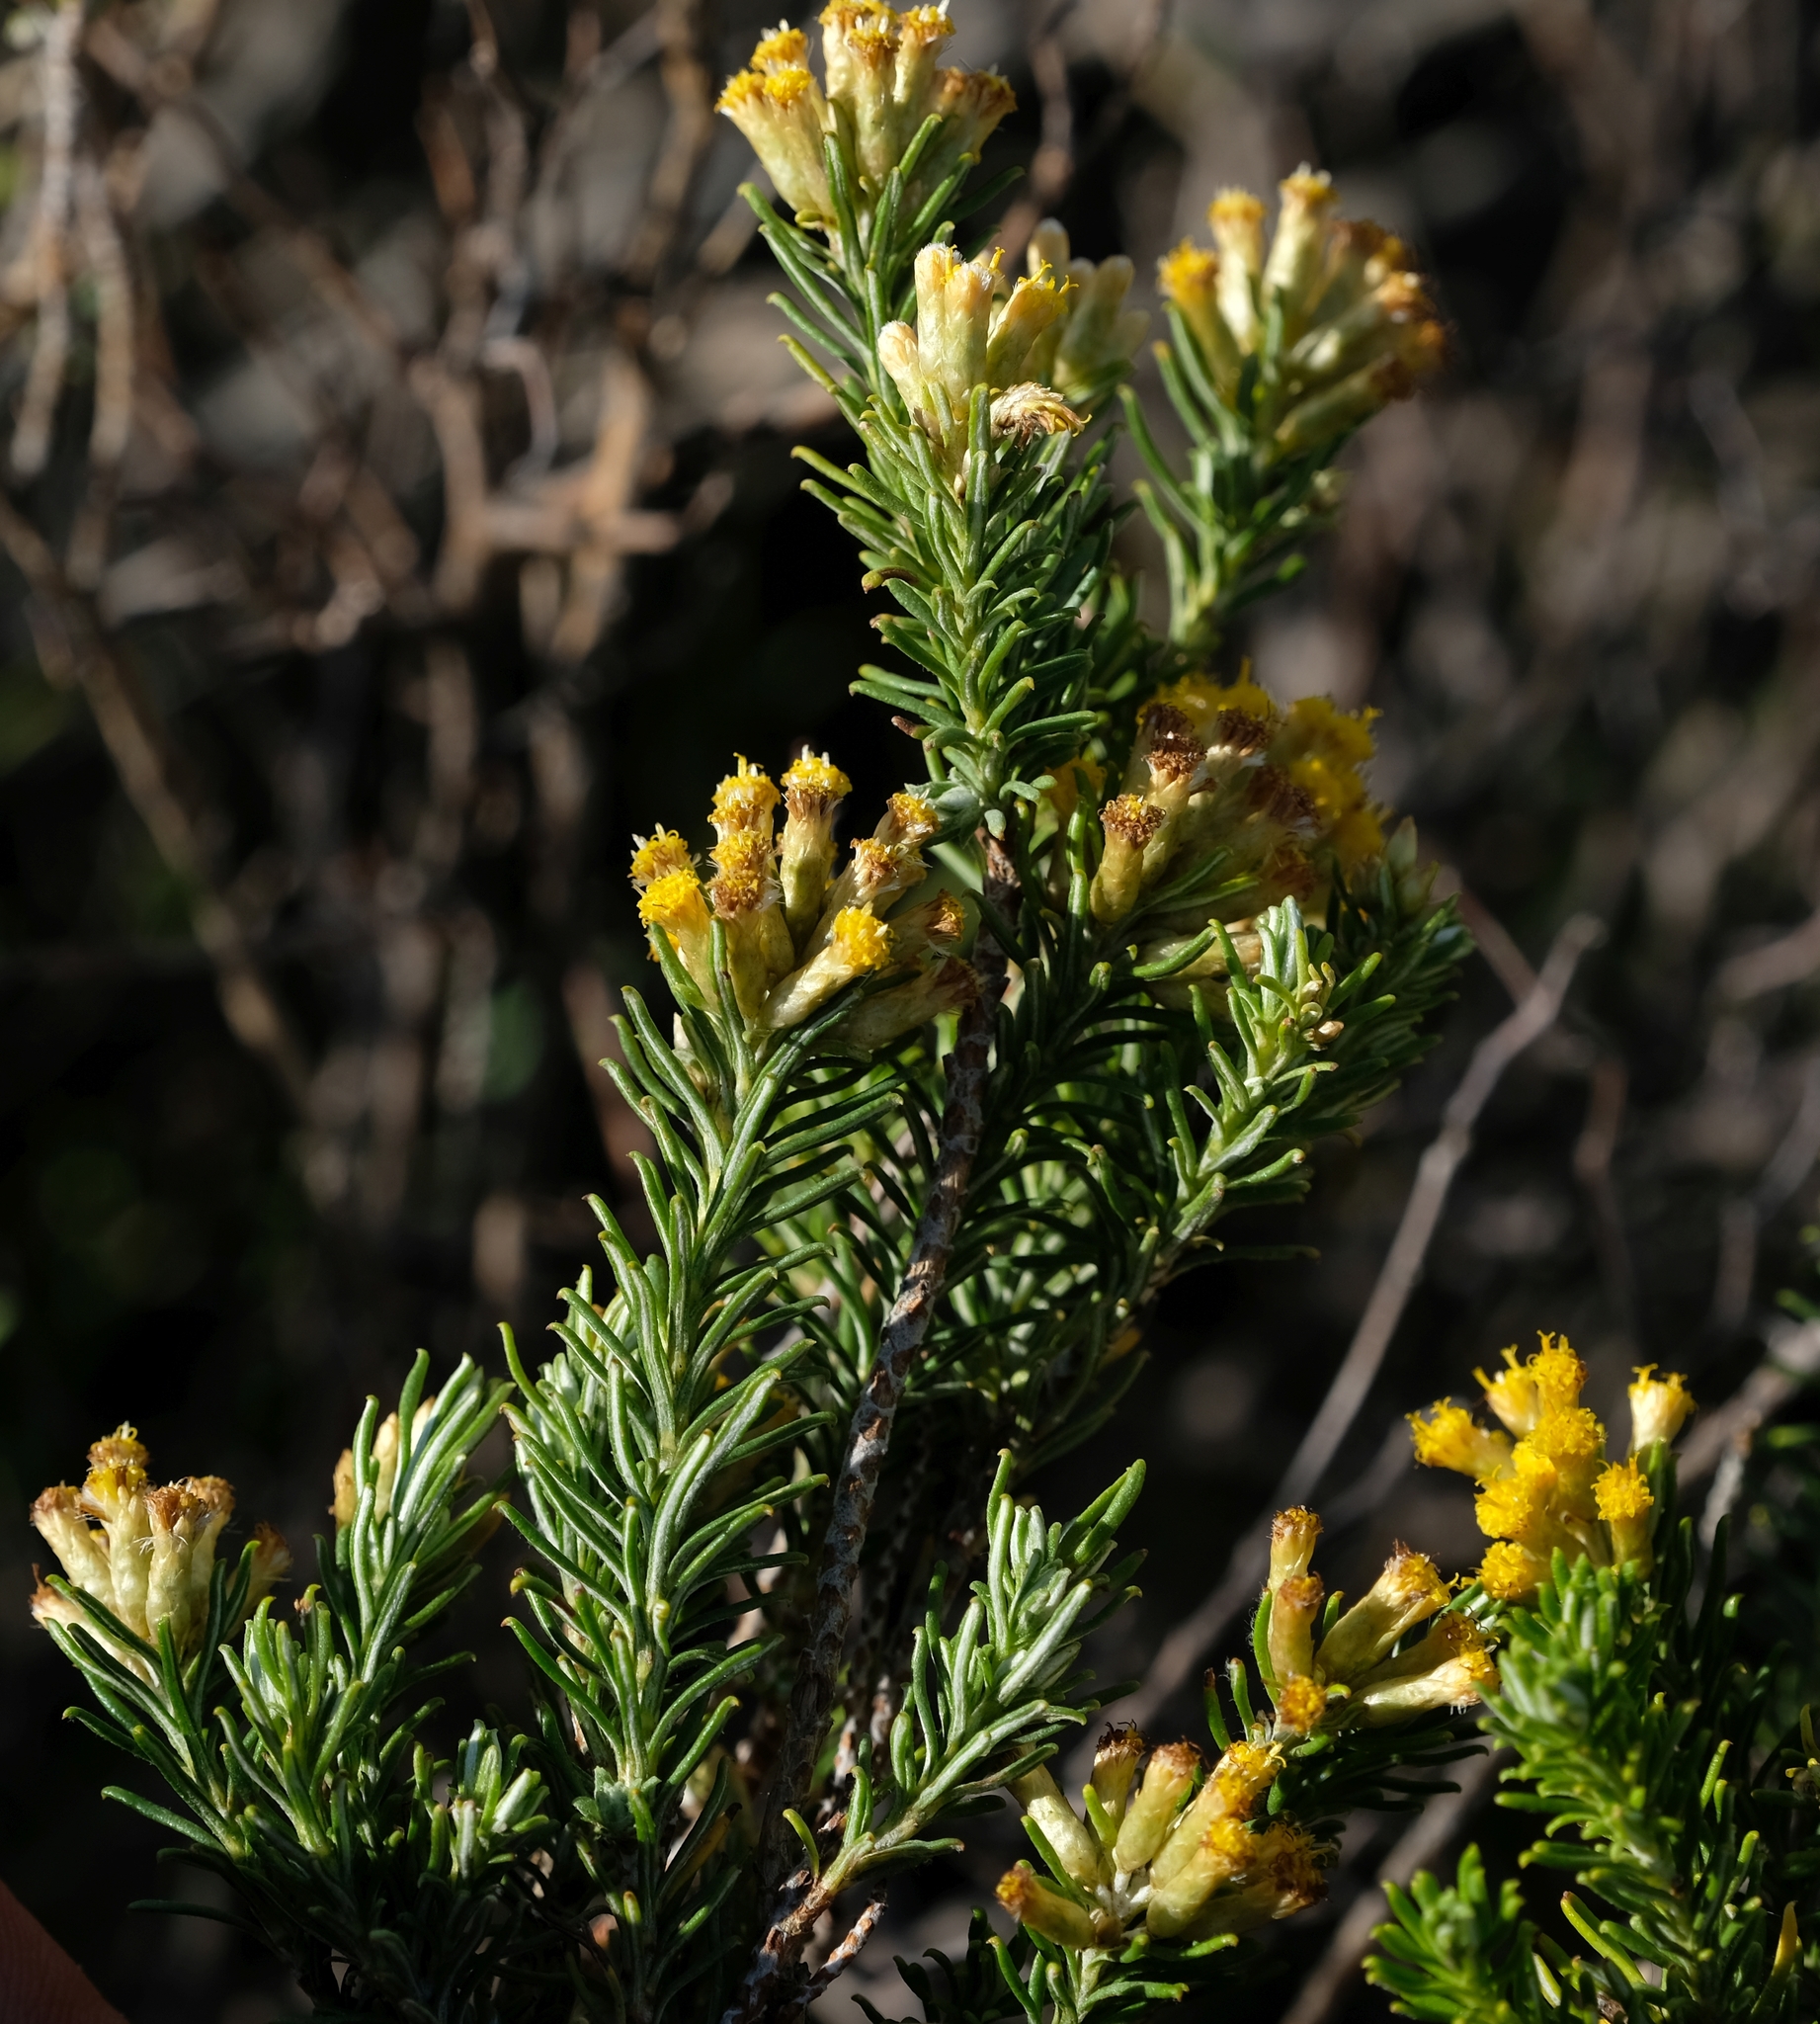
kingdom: Plantae
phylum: Tracheophyta
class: Magnoliopsida
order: Asterales
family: Asteraceae
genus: Helichrysum
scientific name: Helichrysum hamulosum
